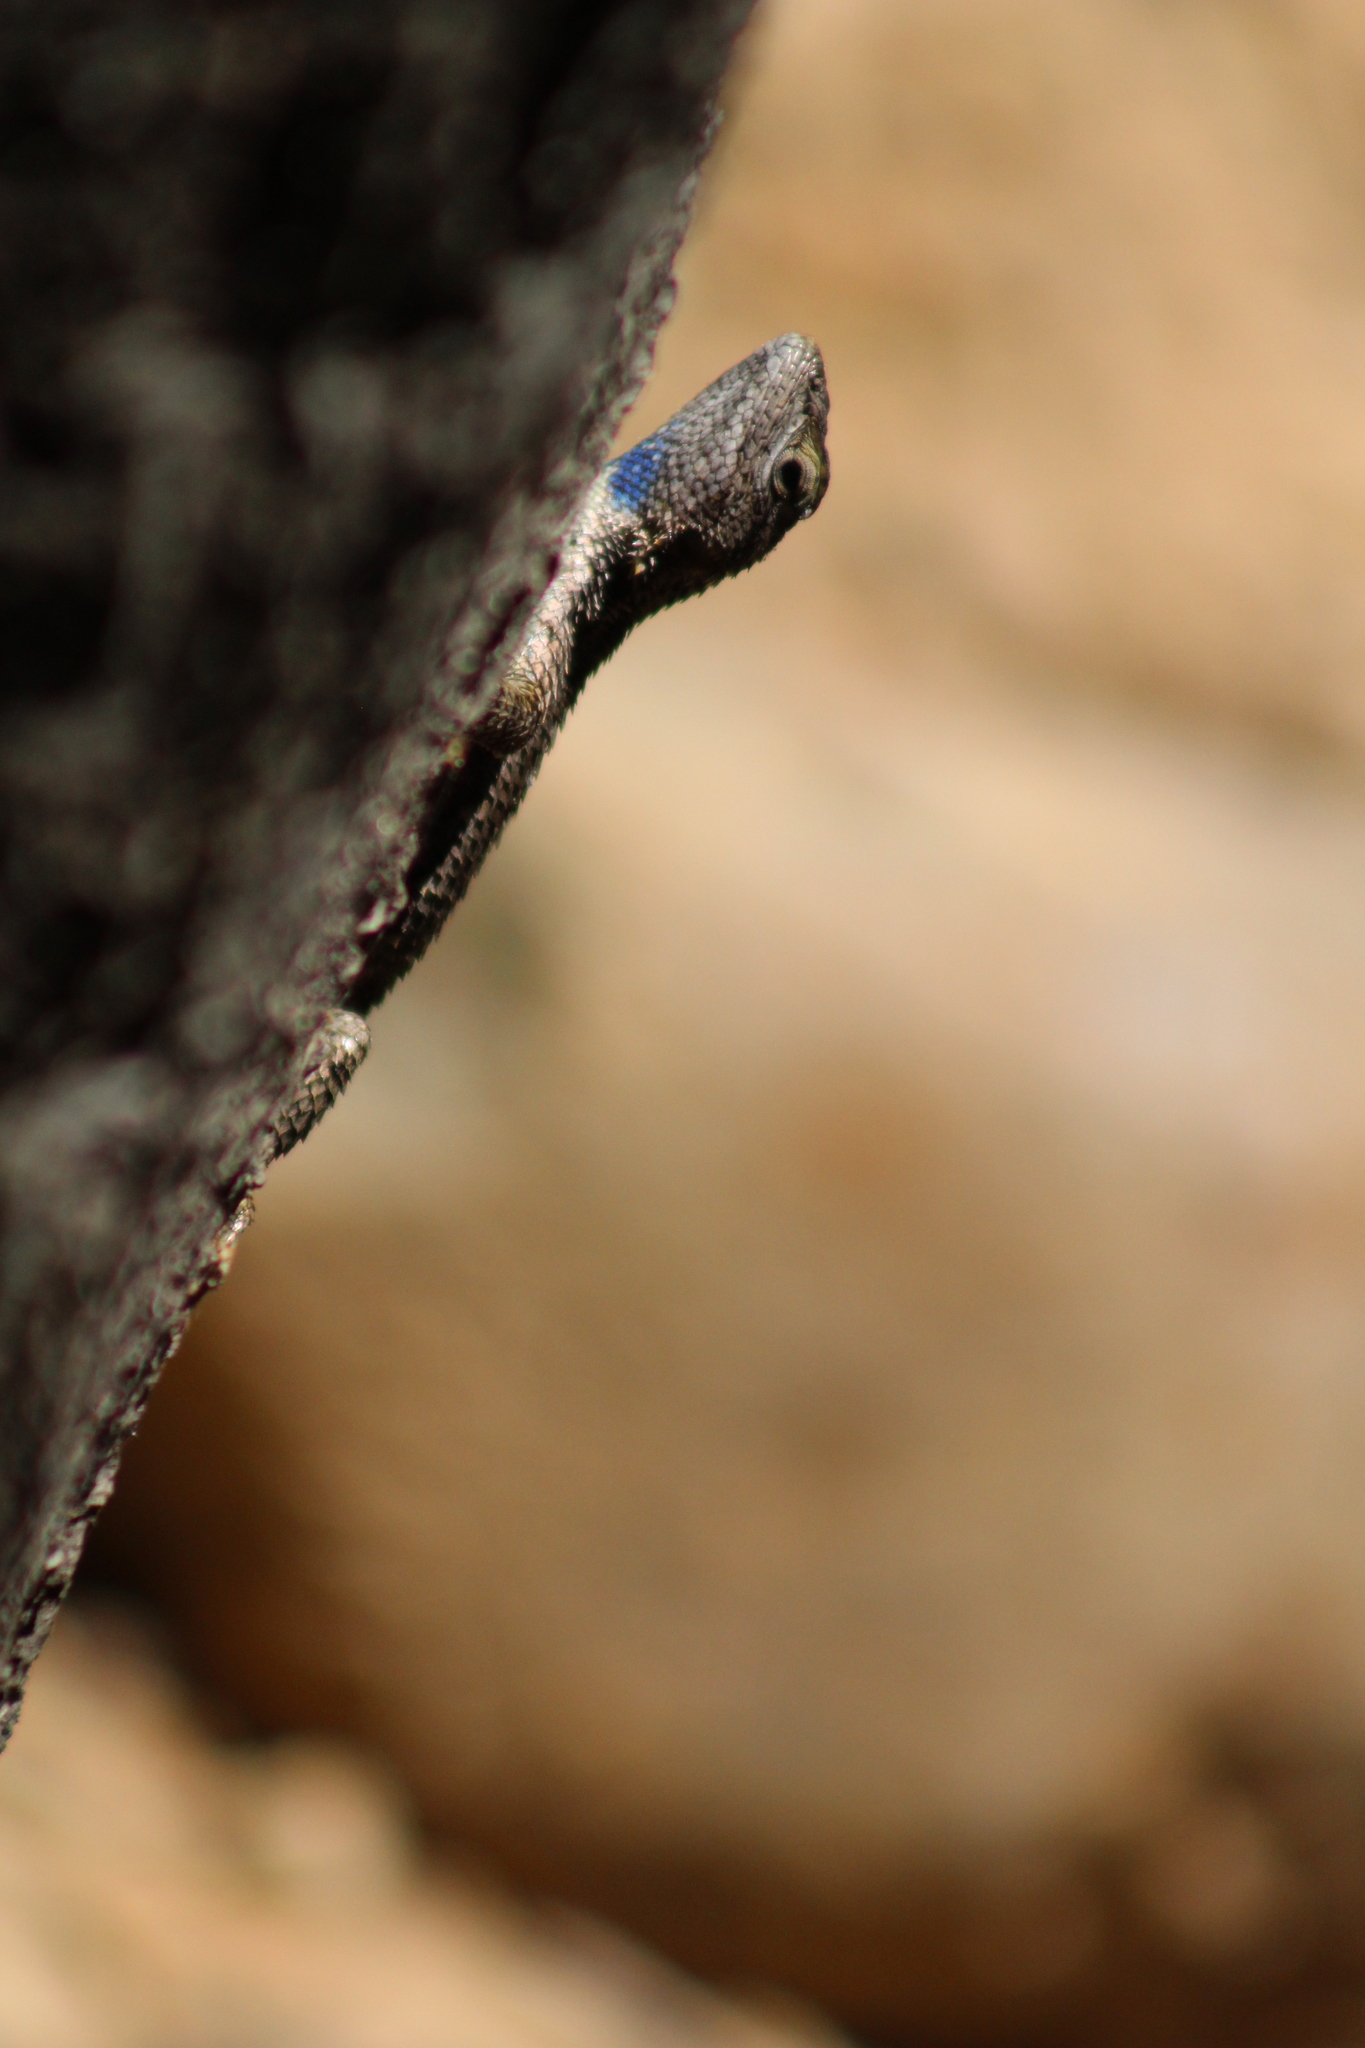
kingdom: Animalia
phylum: Chordata
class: Squamata
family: Phrynosomatidae
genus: Sceloporus
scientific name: Sceloporus occidentalis
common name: Western fence lizard
